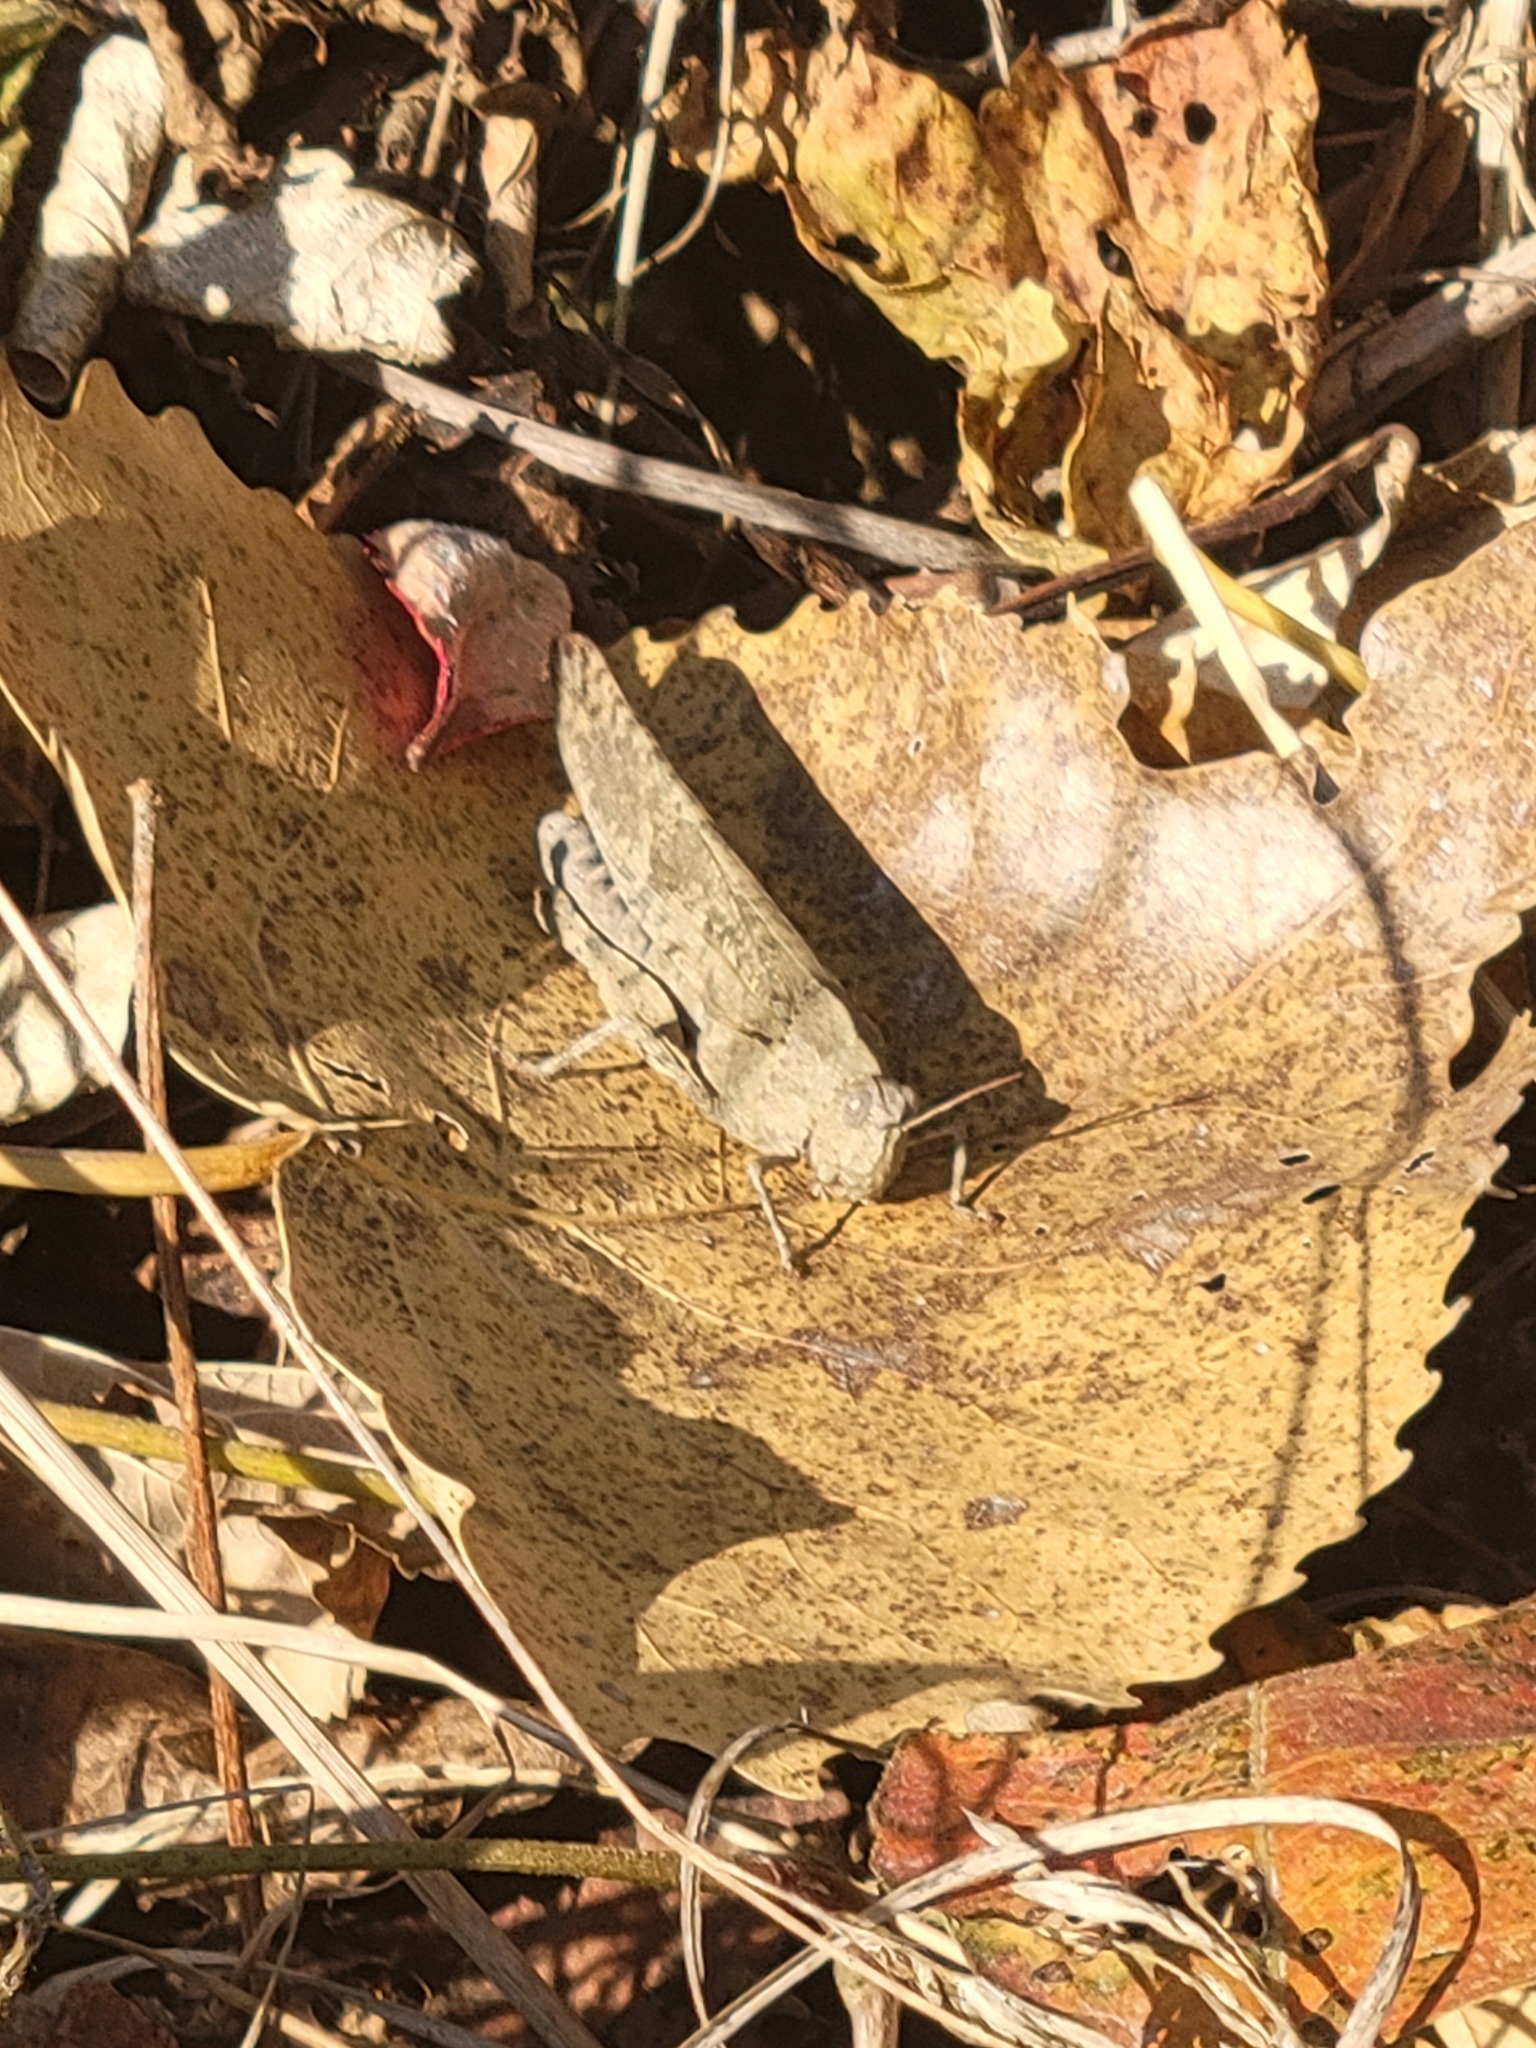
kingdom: Animalia
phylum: Arthropoda
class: Insecta
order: Orthoptera
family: Acrididae
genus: Dissosteira
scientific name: Dissosteira carolina
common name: Carolina grasshopper
